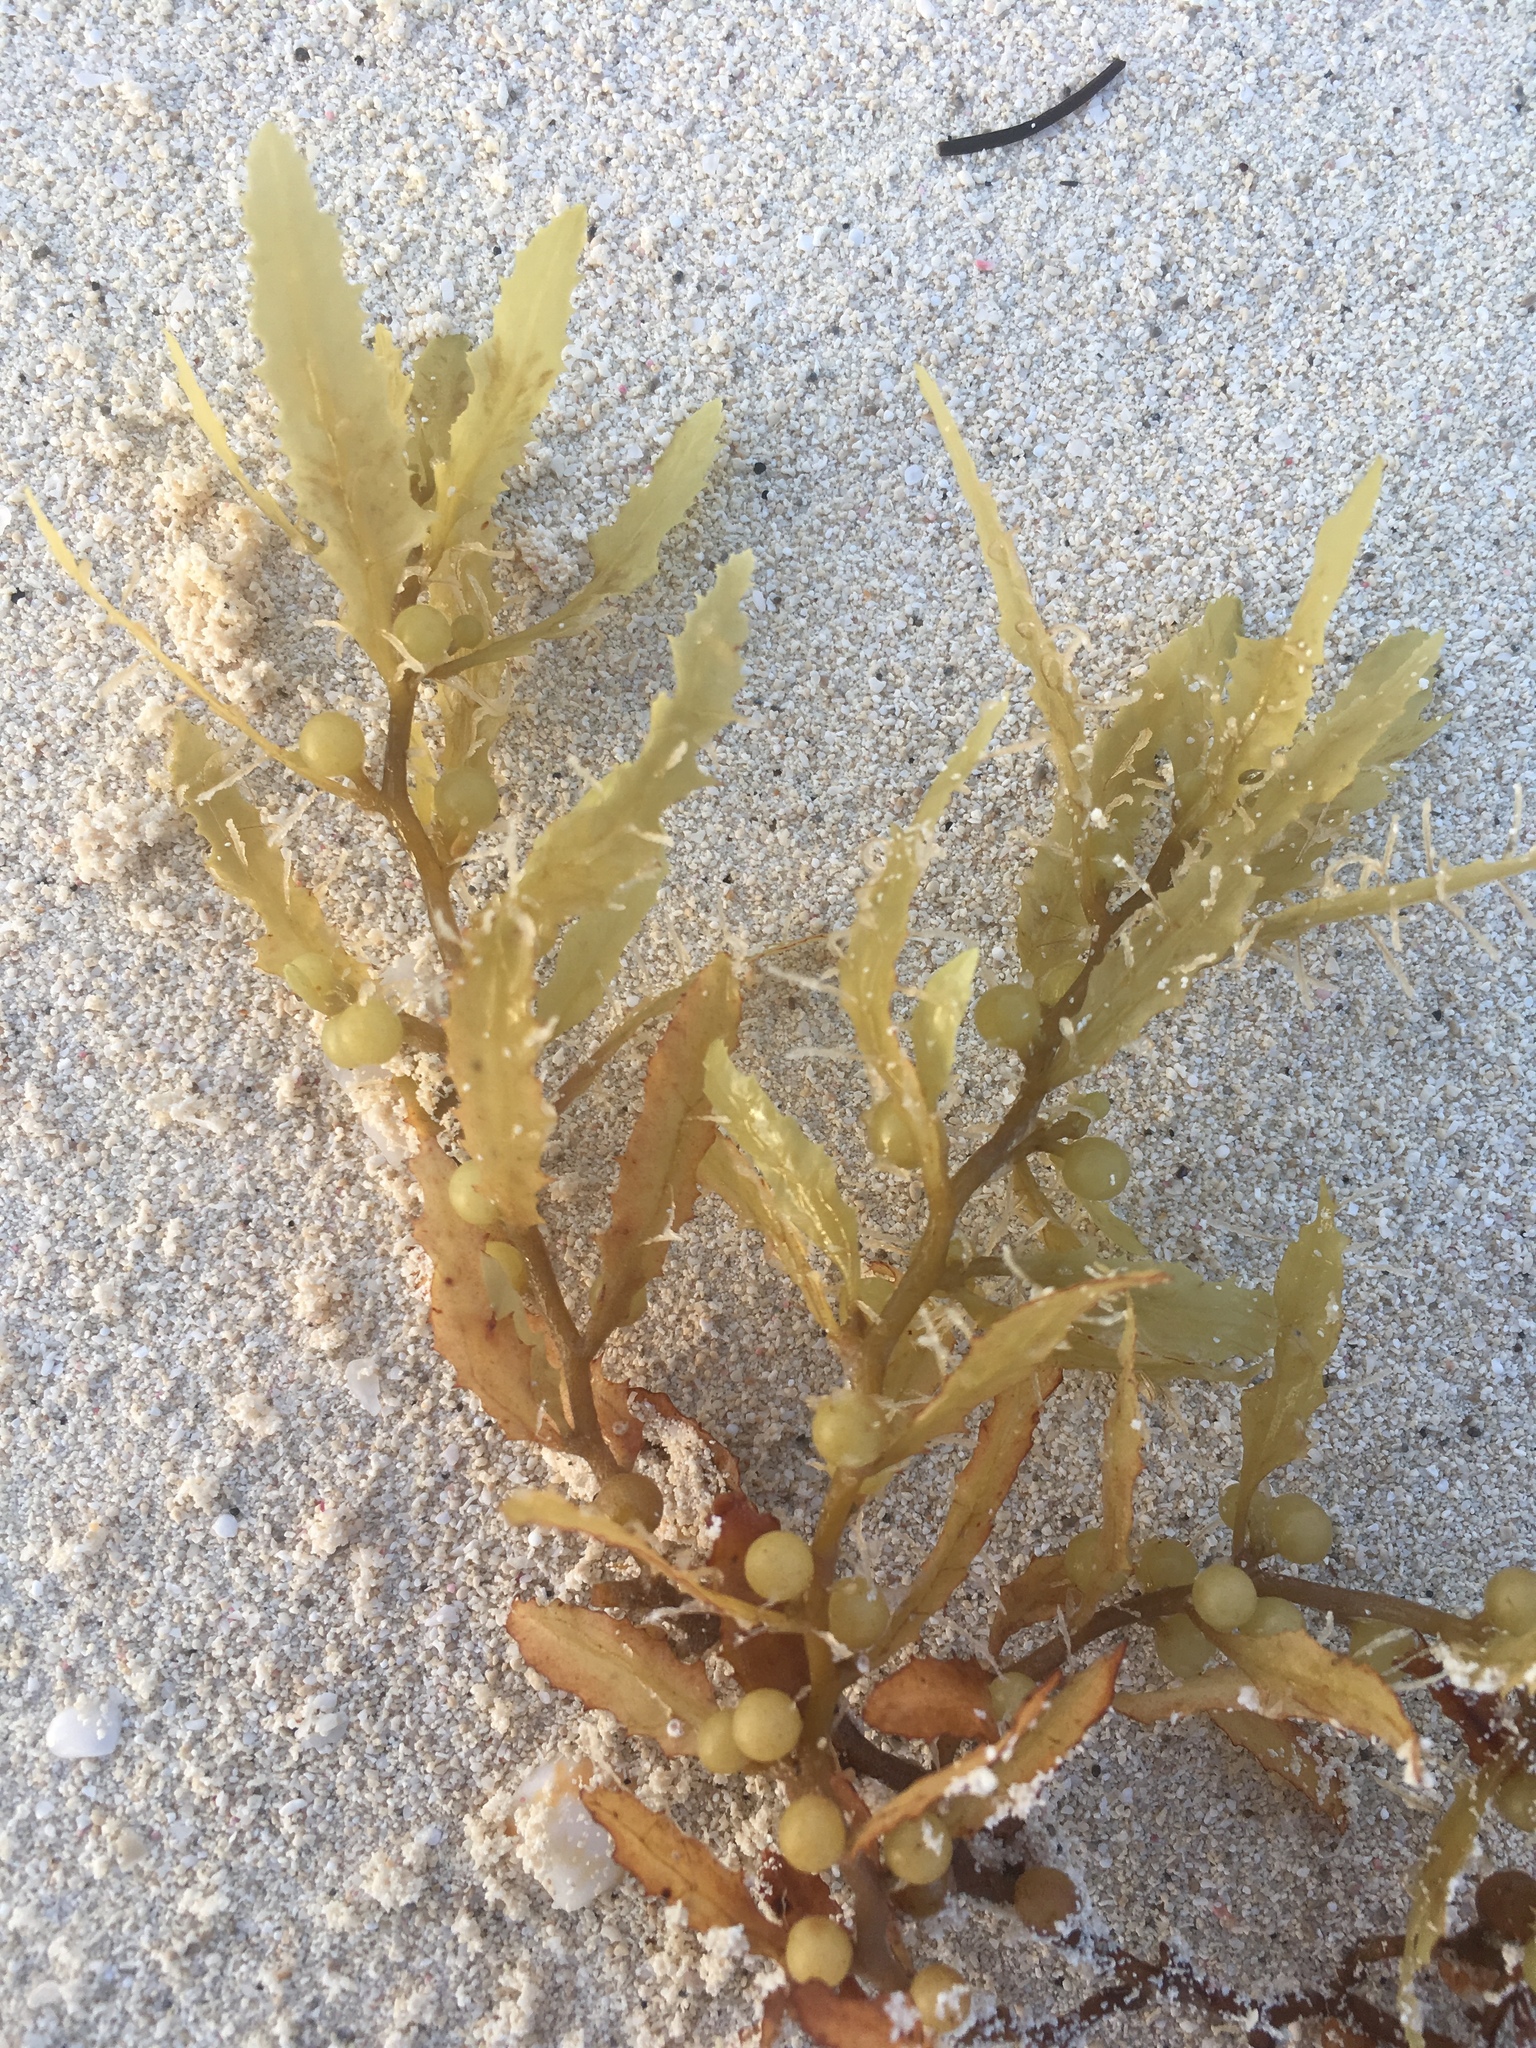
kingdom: Chromista
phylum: Ochrophyta
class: Phaeophyceae
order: Fucales
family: Sargassaceae
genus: Sargassum
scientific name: Sargassum natans
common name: Sargasso weed
